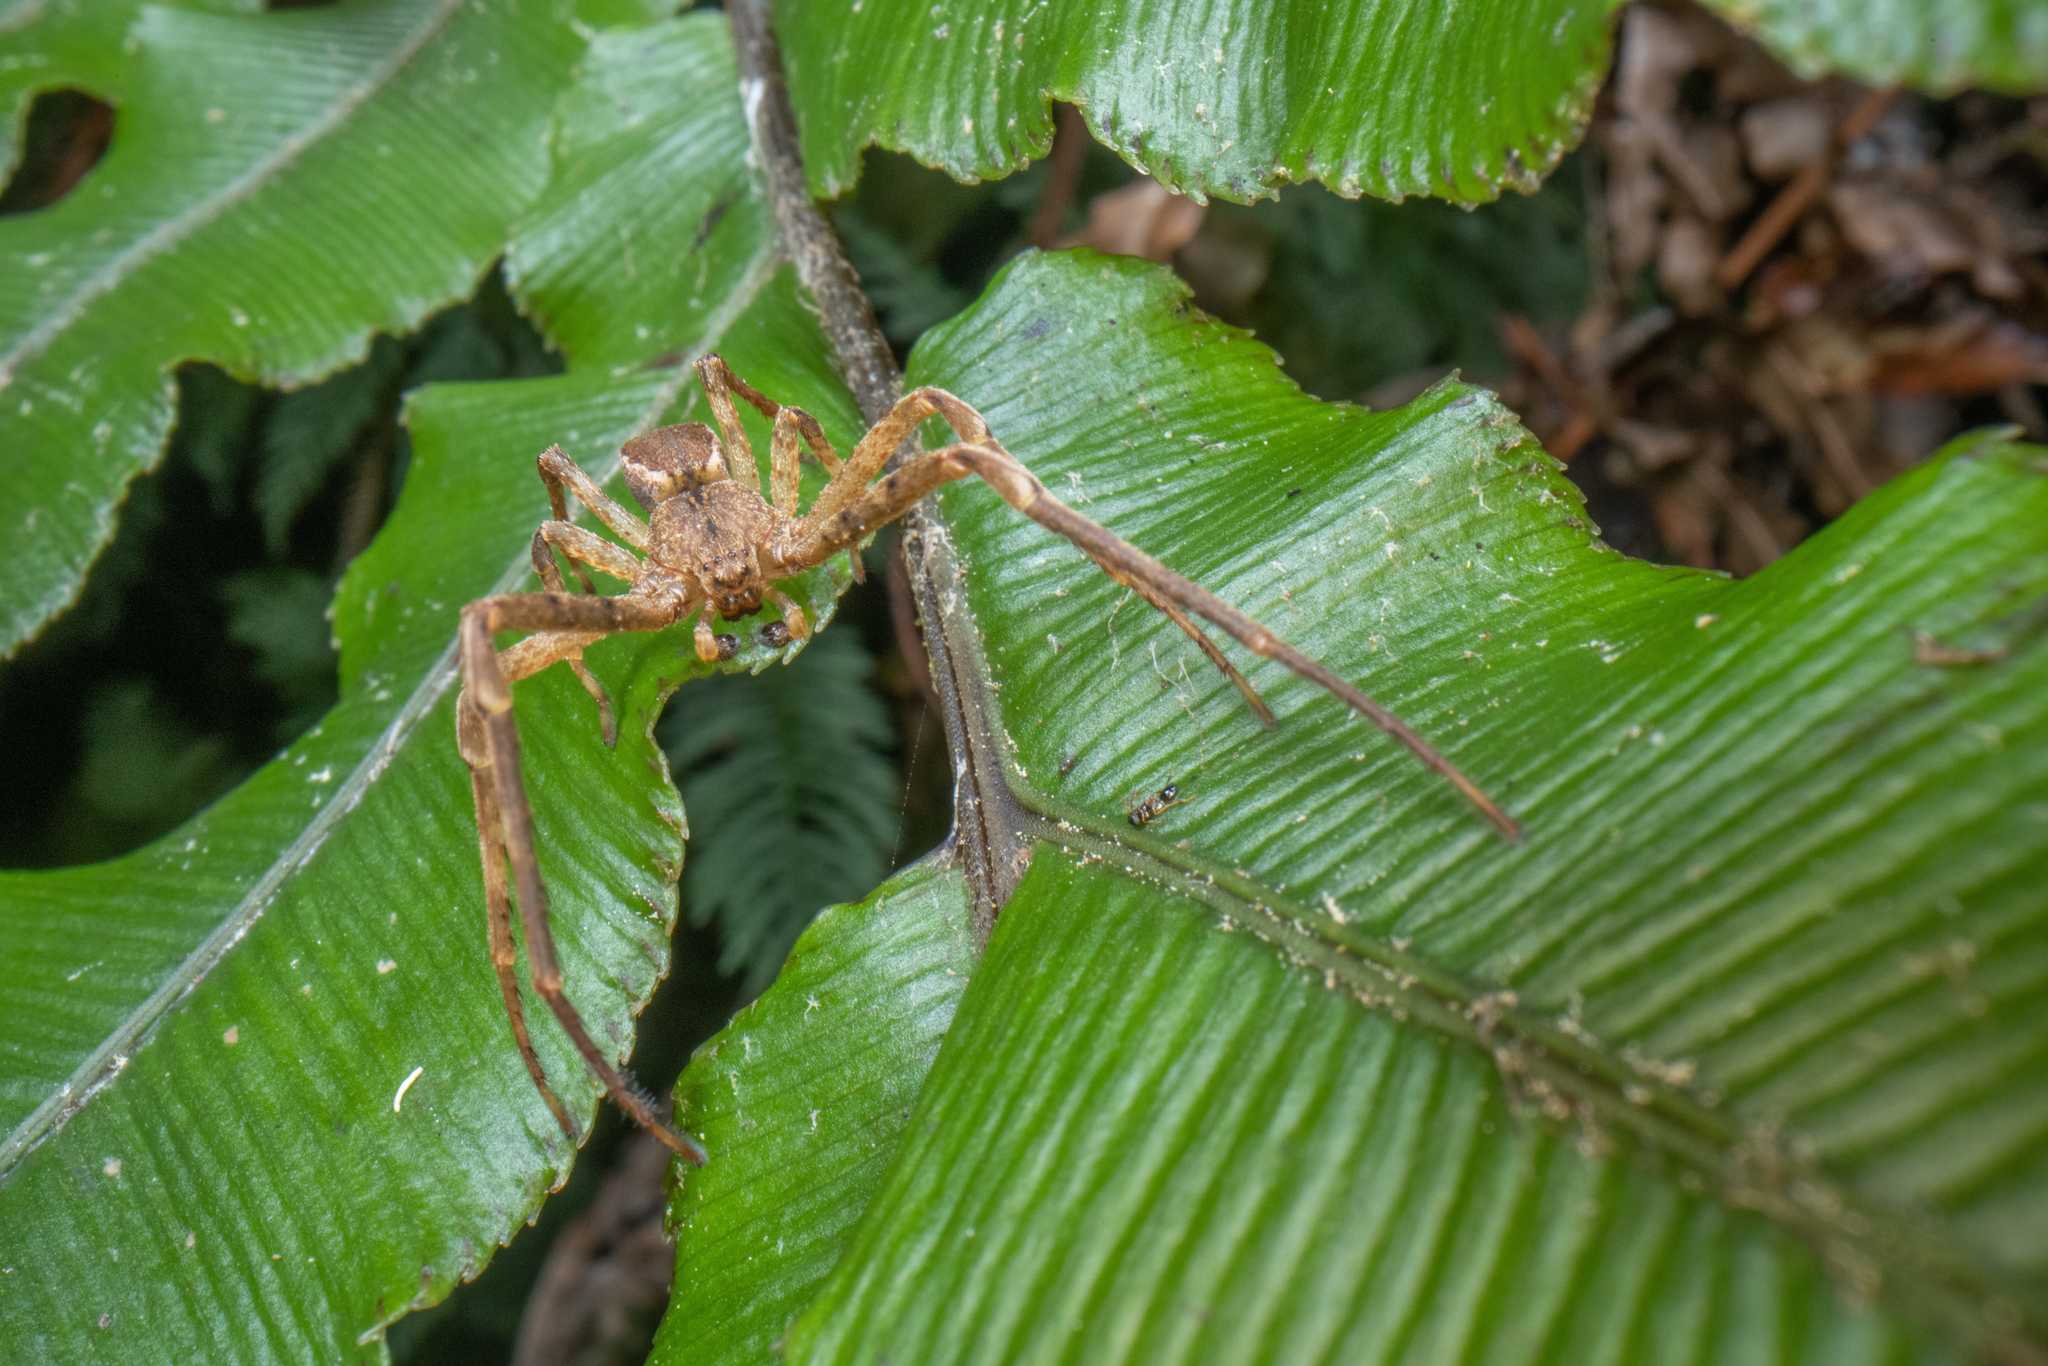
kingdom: Animalia
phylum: Arthropoda
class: Arachnida
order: Araneae
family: Thomisidae
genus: Sidymella
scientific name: Sidymella angularis
